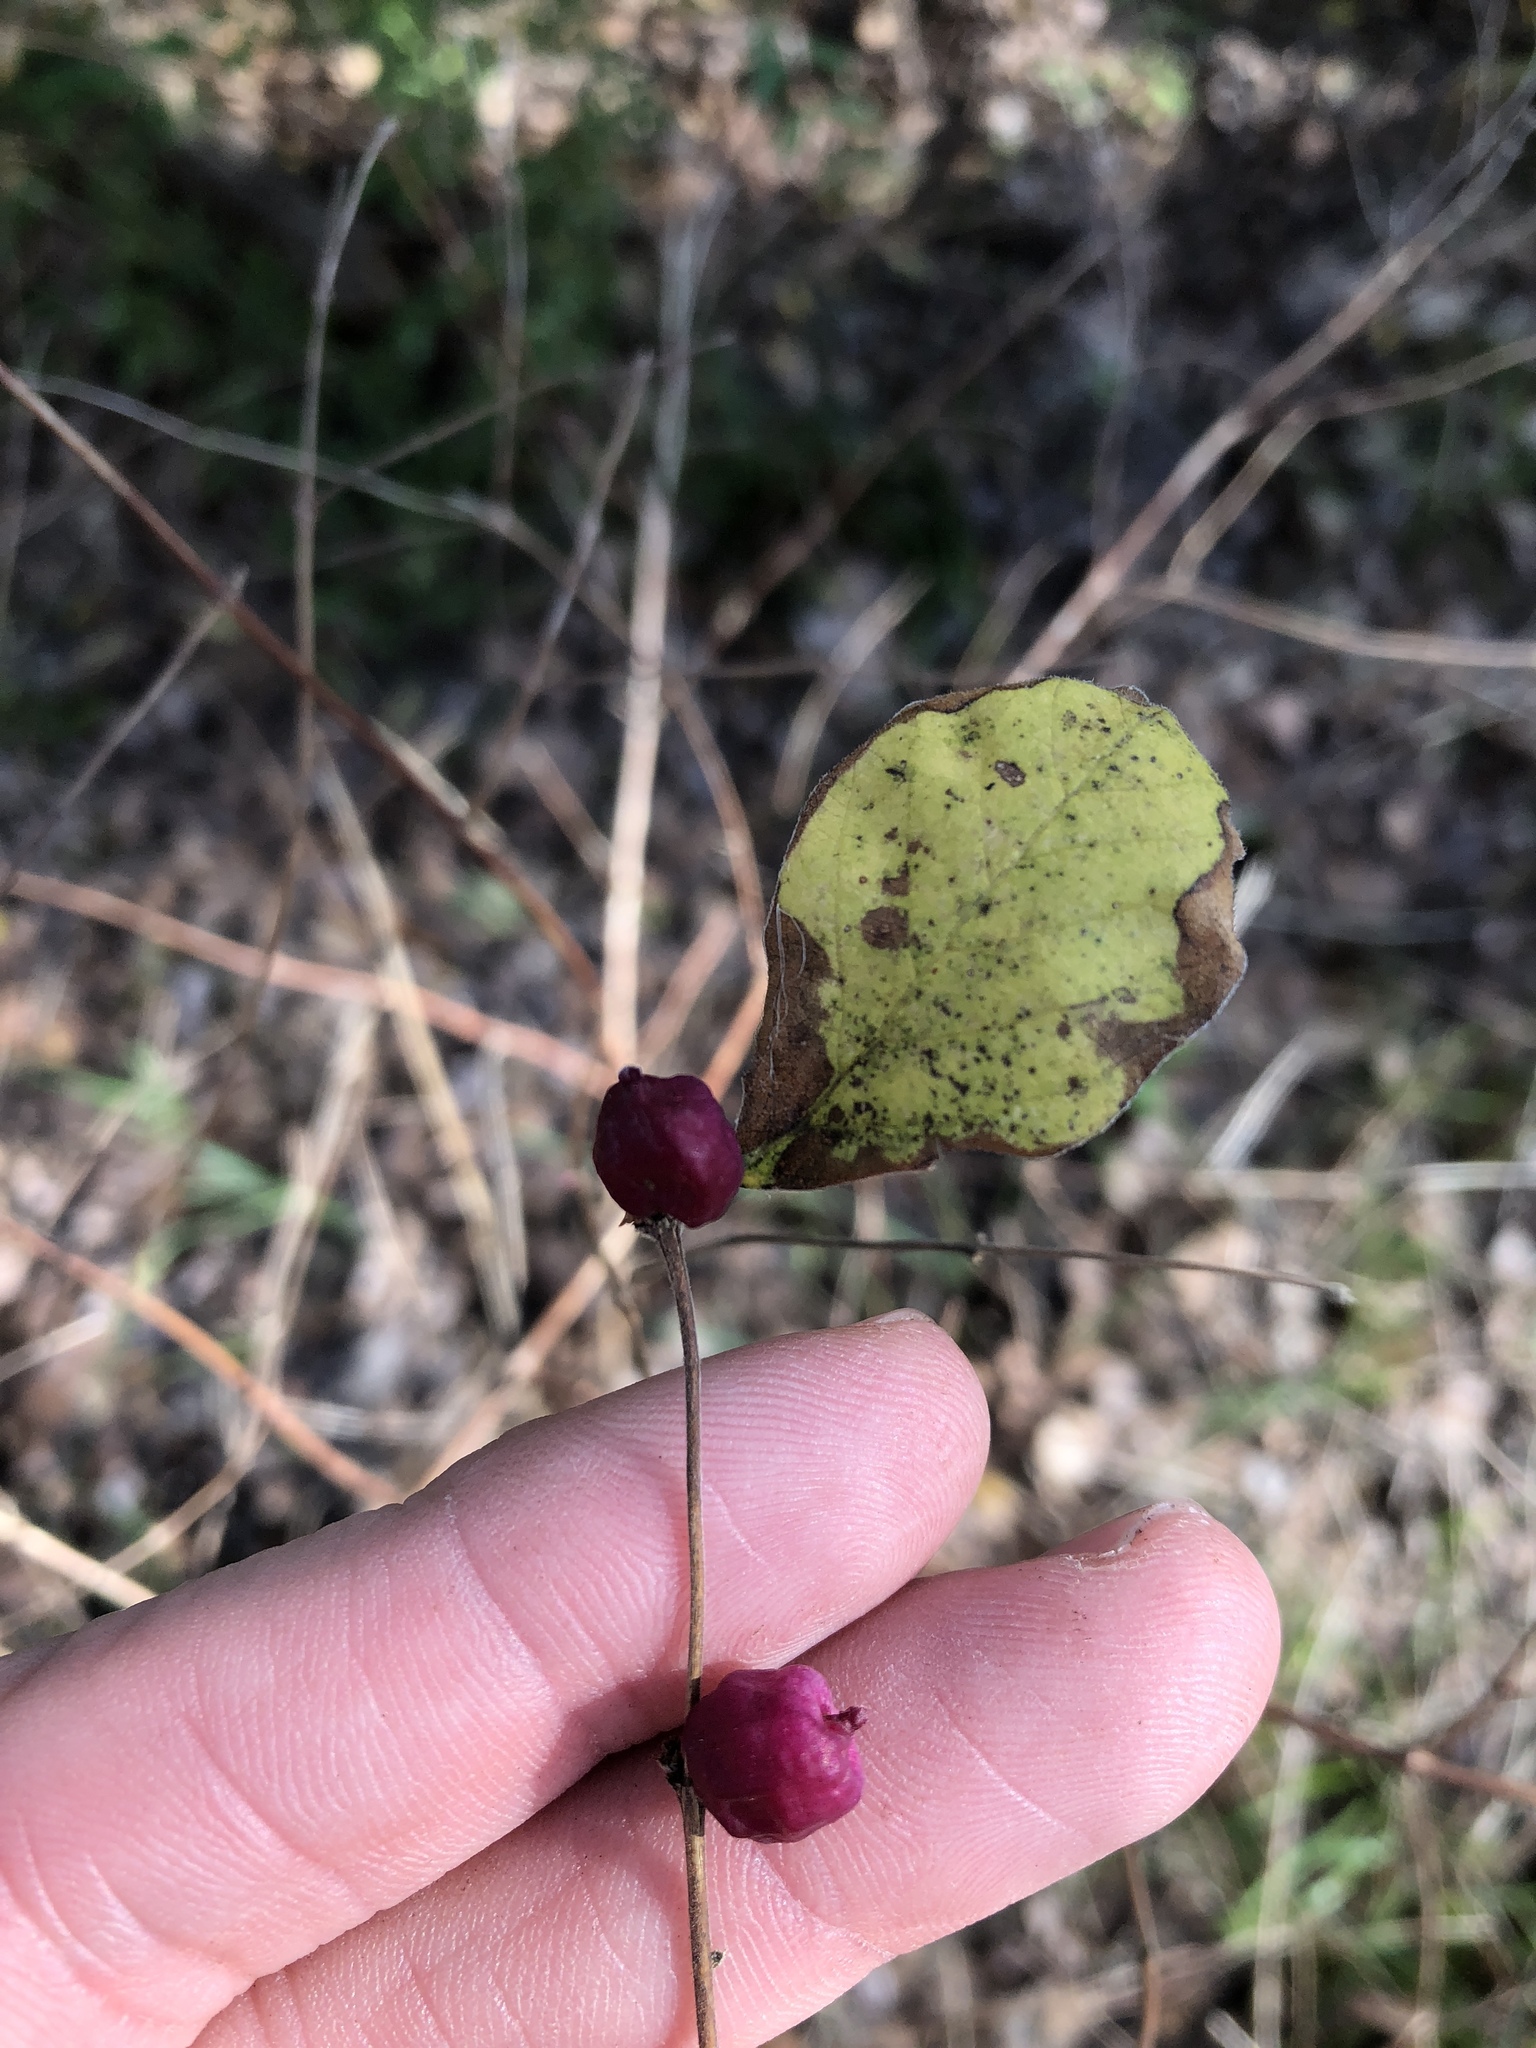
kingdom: Plantae
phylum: Tracheophyta
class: Magnoliopsida
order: Dipsacales
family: Caprifoliaceae
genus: Symphoricarpos
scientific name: Symphoricarpos orbiculatus
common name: Coralberry
